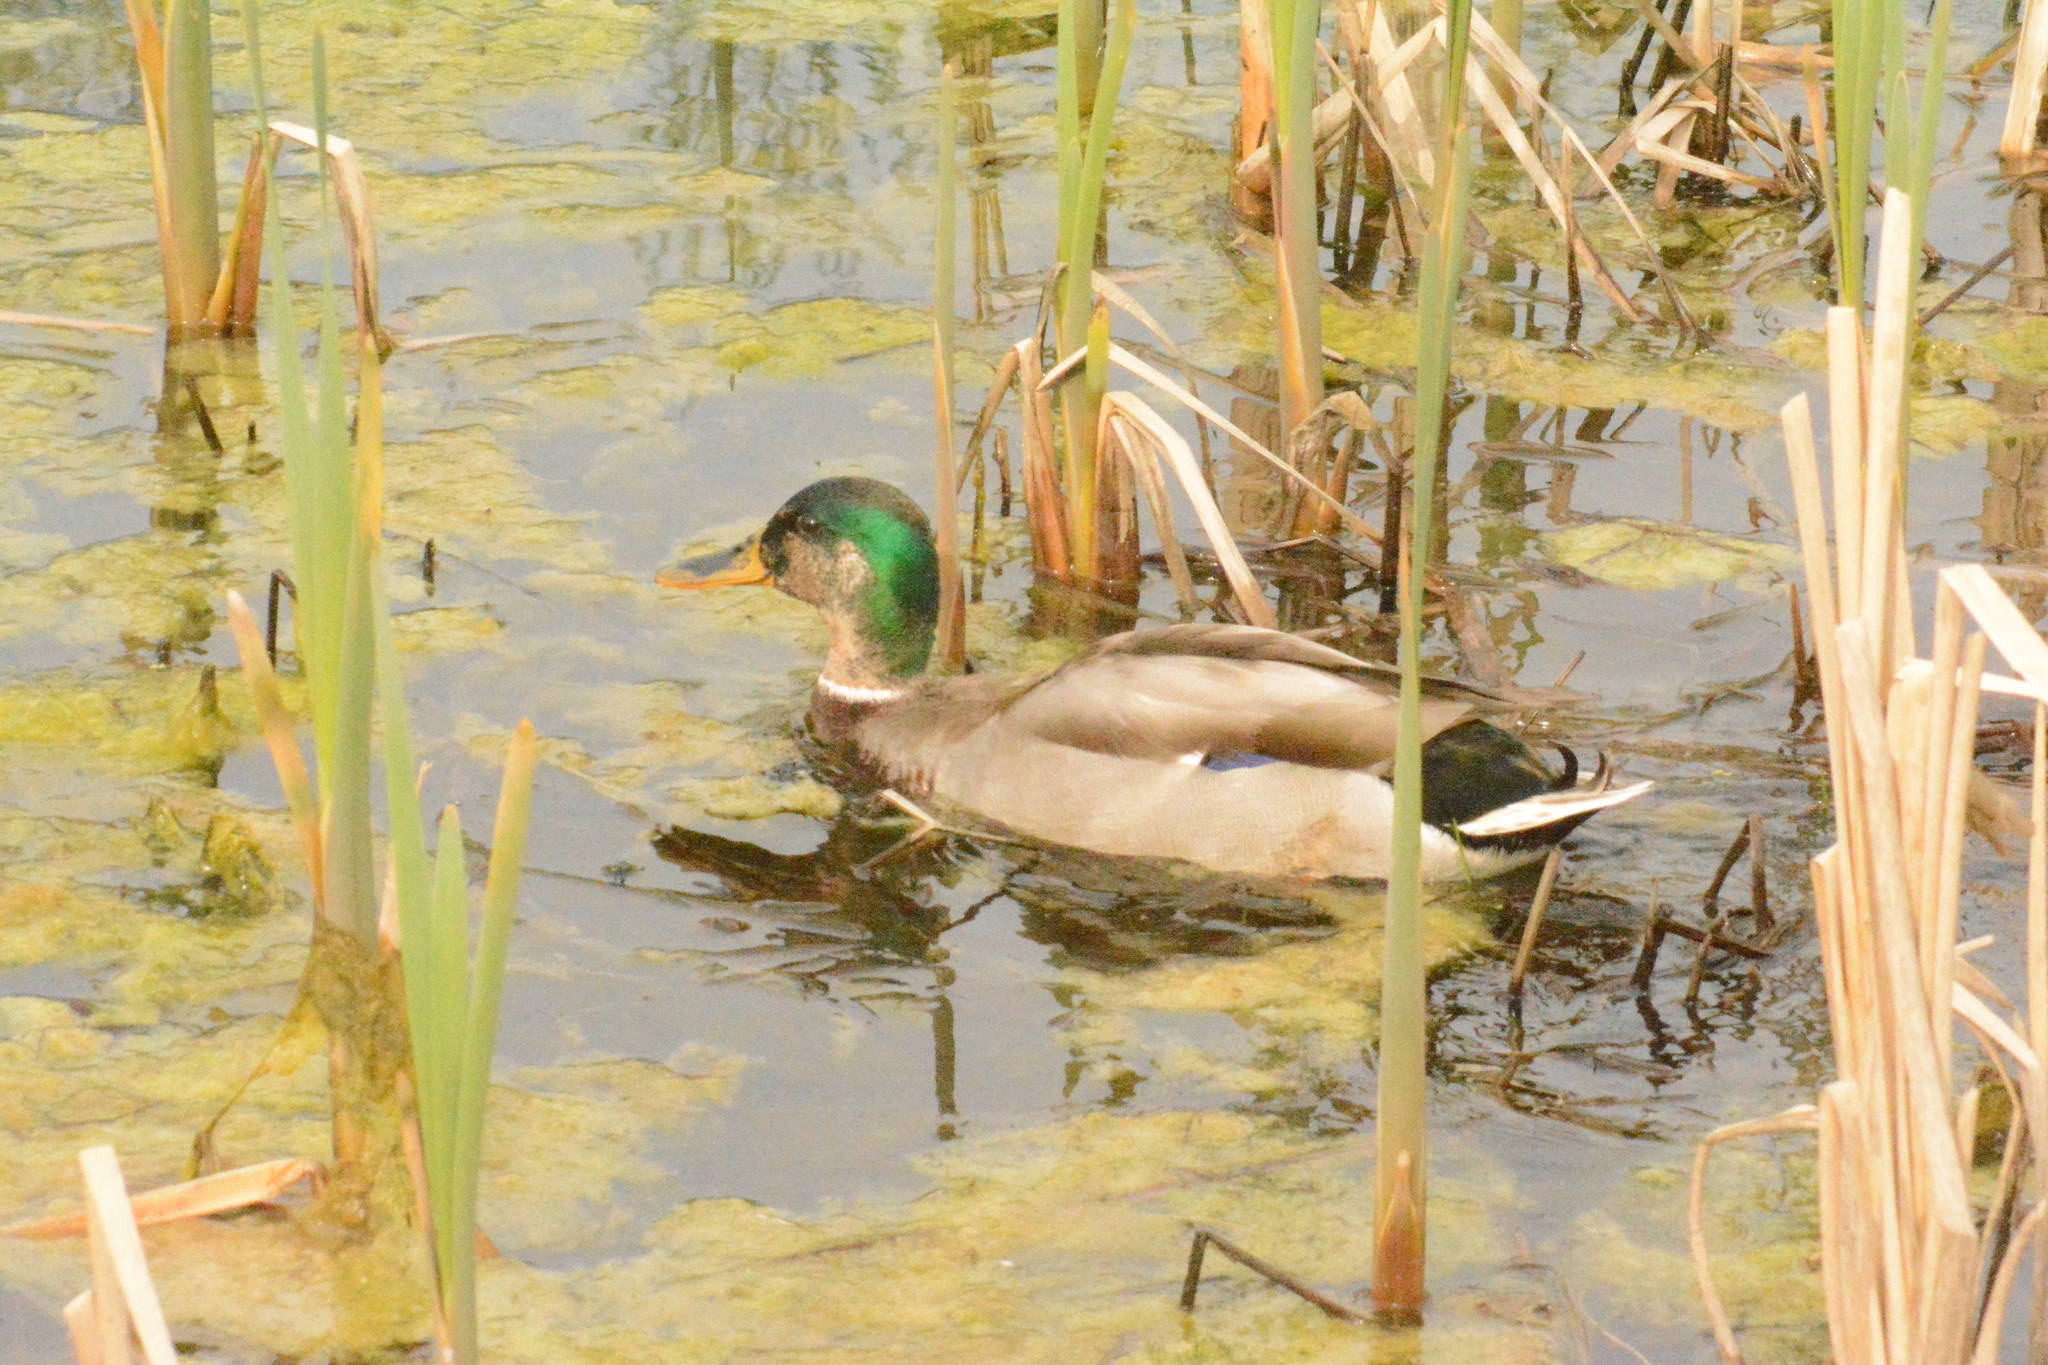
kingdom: Animalia
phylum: Chordata
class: Aves
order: Anseriformes
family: Anatidae
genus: Anas
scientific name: Anas platyrhynchos
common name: Mallard
